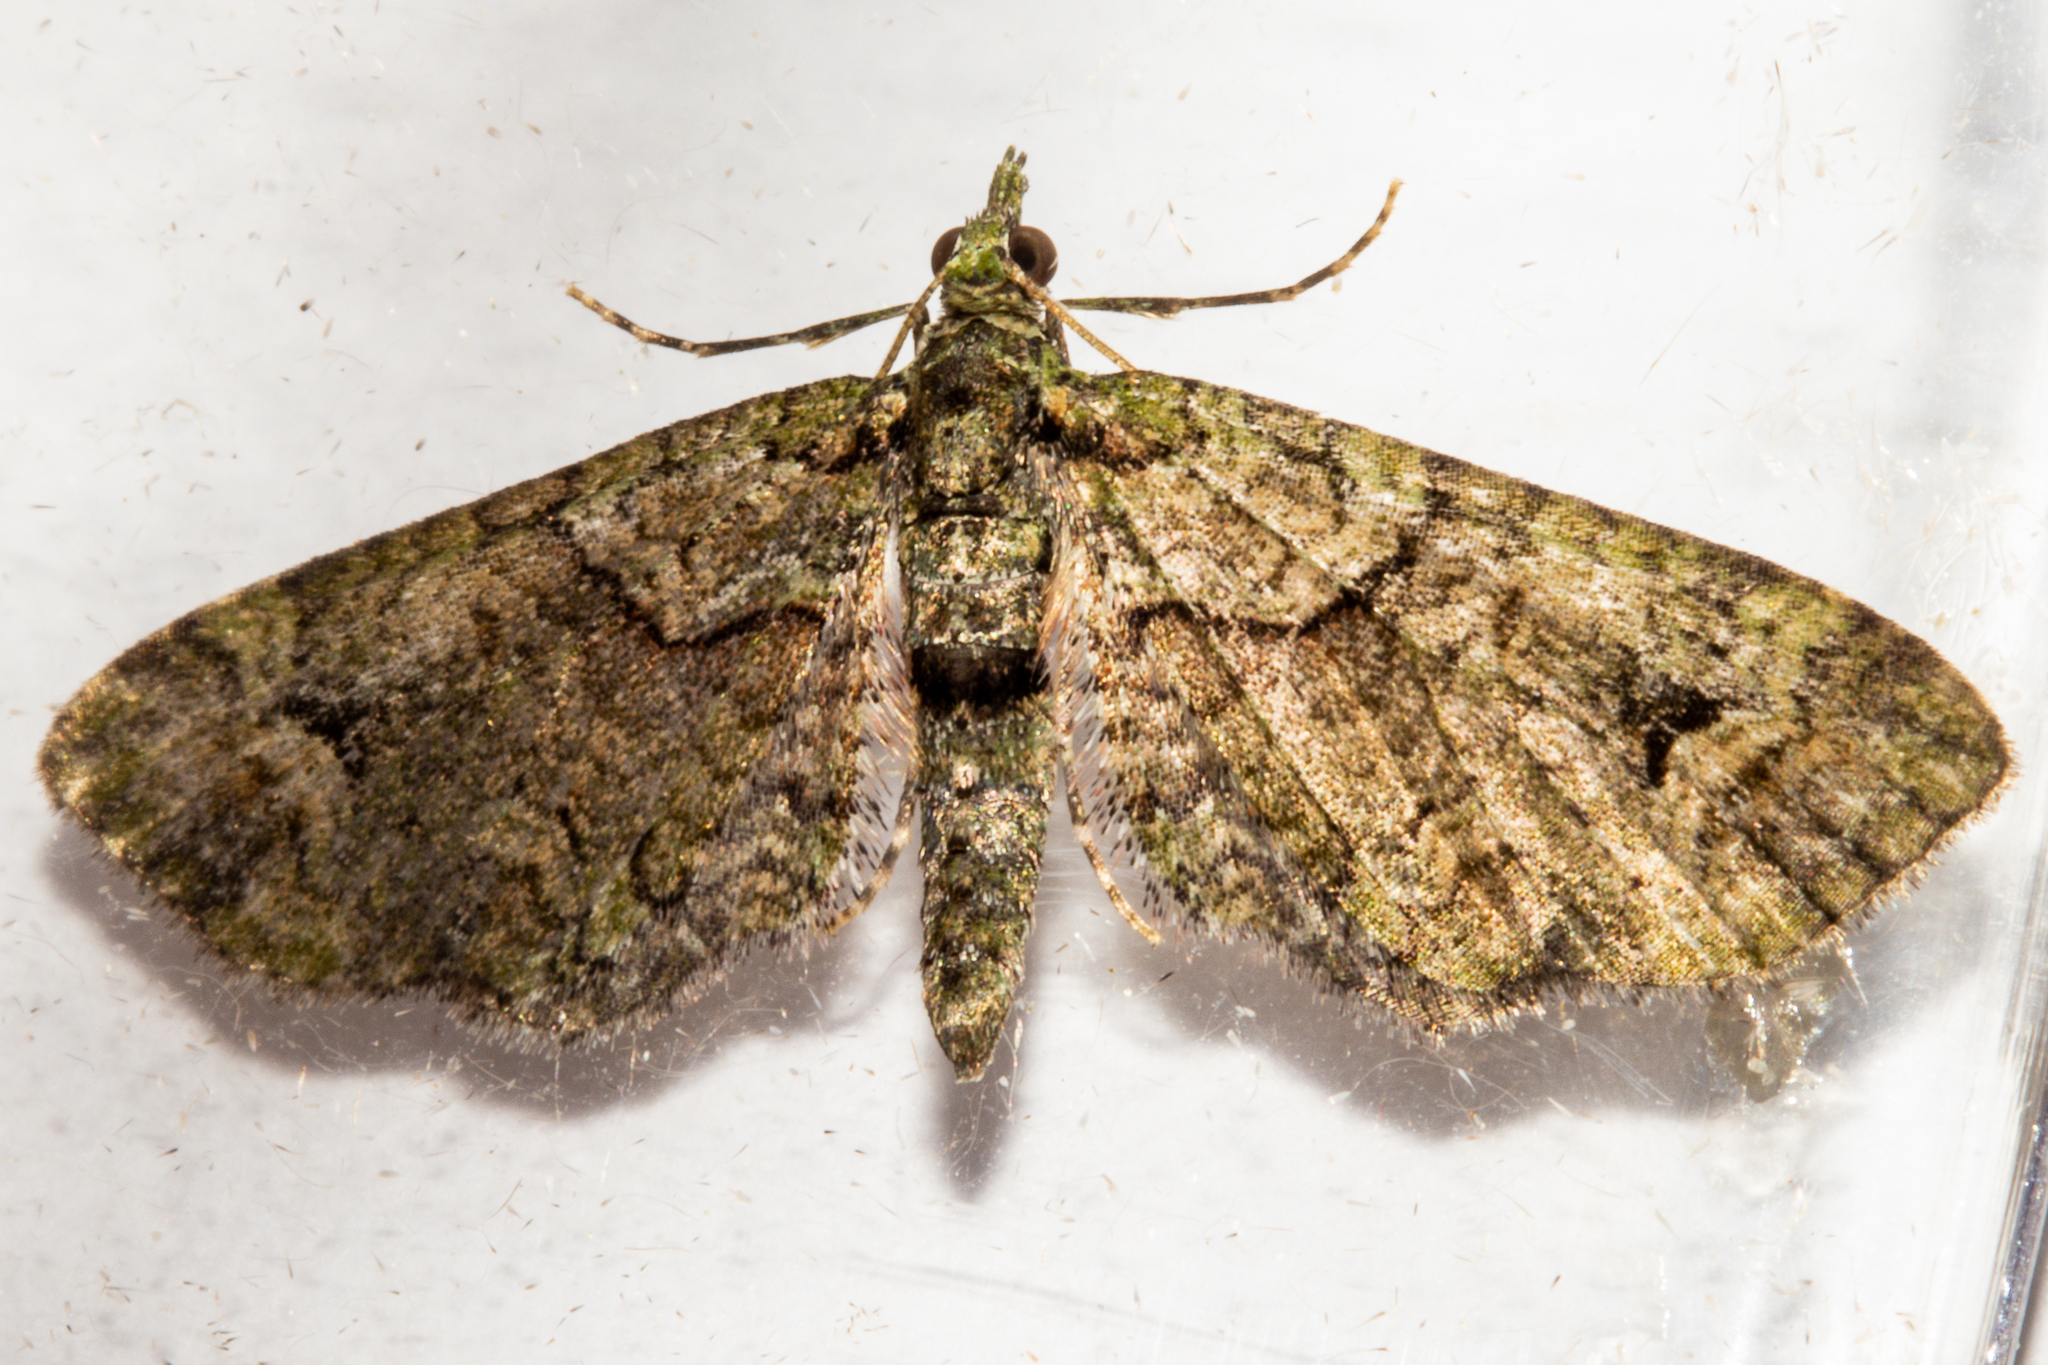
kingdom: Animalia
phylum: Arthropoda
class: Insecta
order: Lepidoptera
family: Geometridae
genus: Idaea
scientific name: Idaea mutanda
